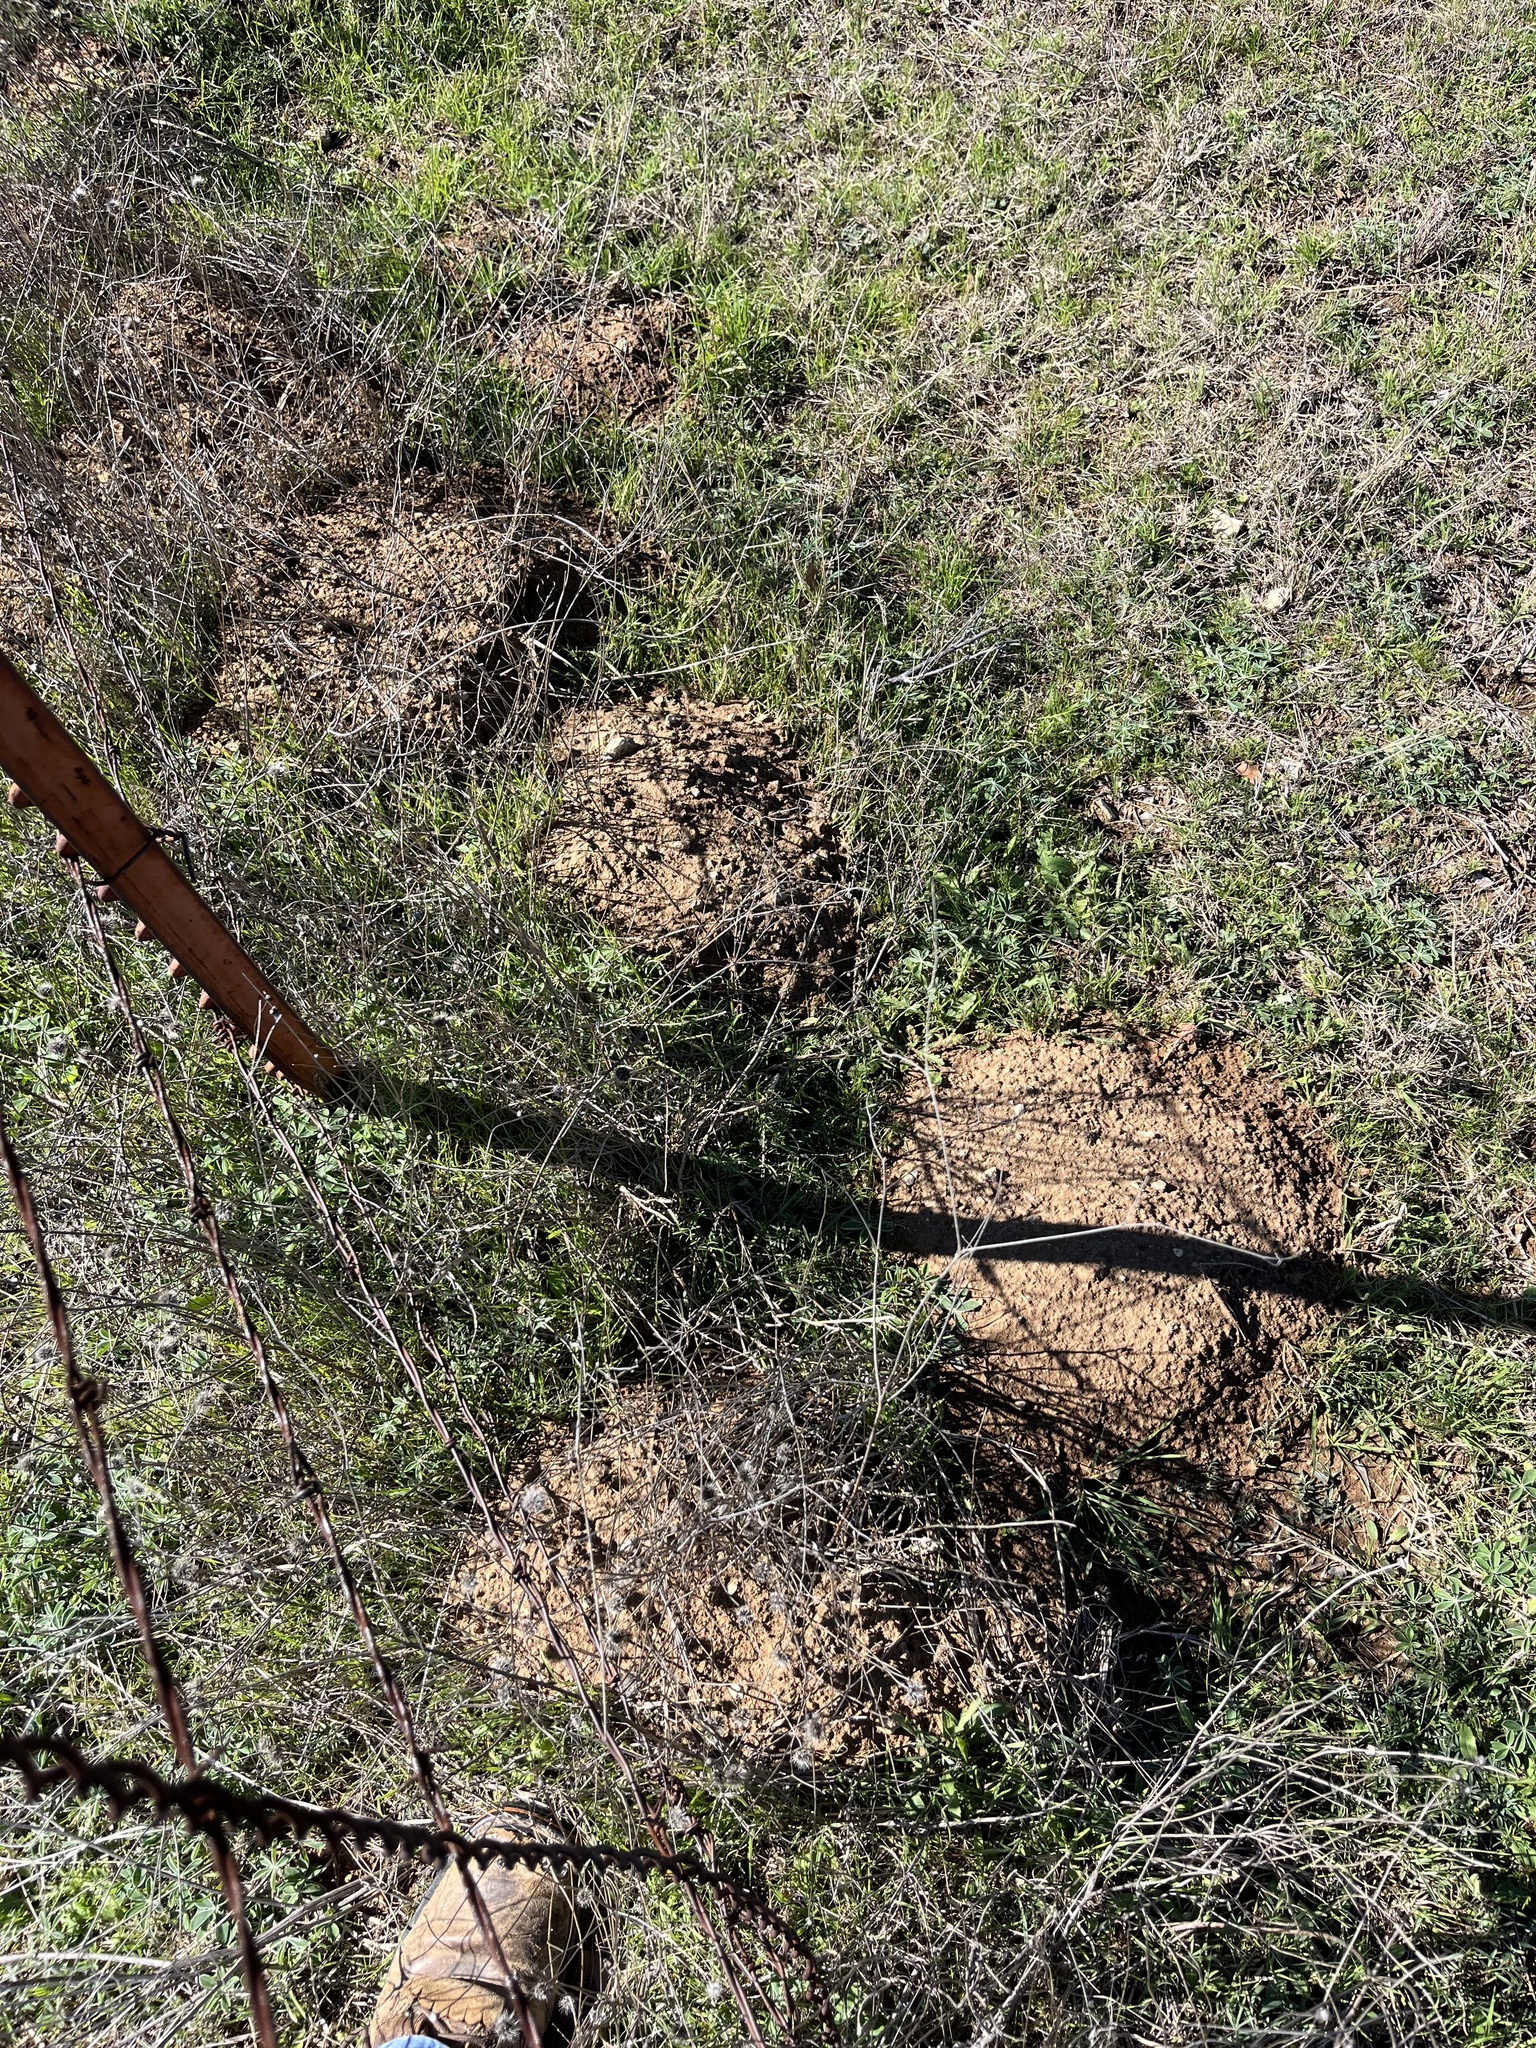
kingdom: Animalia
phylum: Chordata
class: Mammalia
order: Rodentia
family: Geomyidae
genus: Geomys
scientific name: Geomys texensis
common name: Llano pocket gopher
